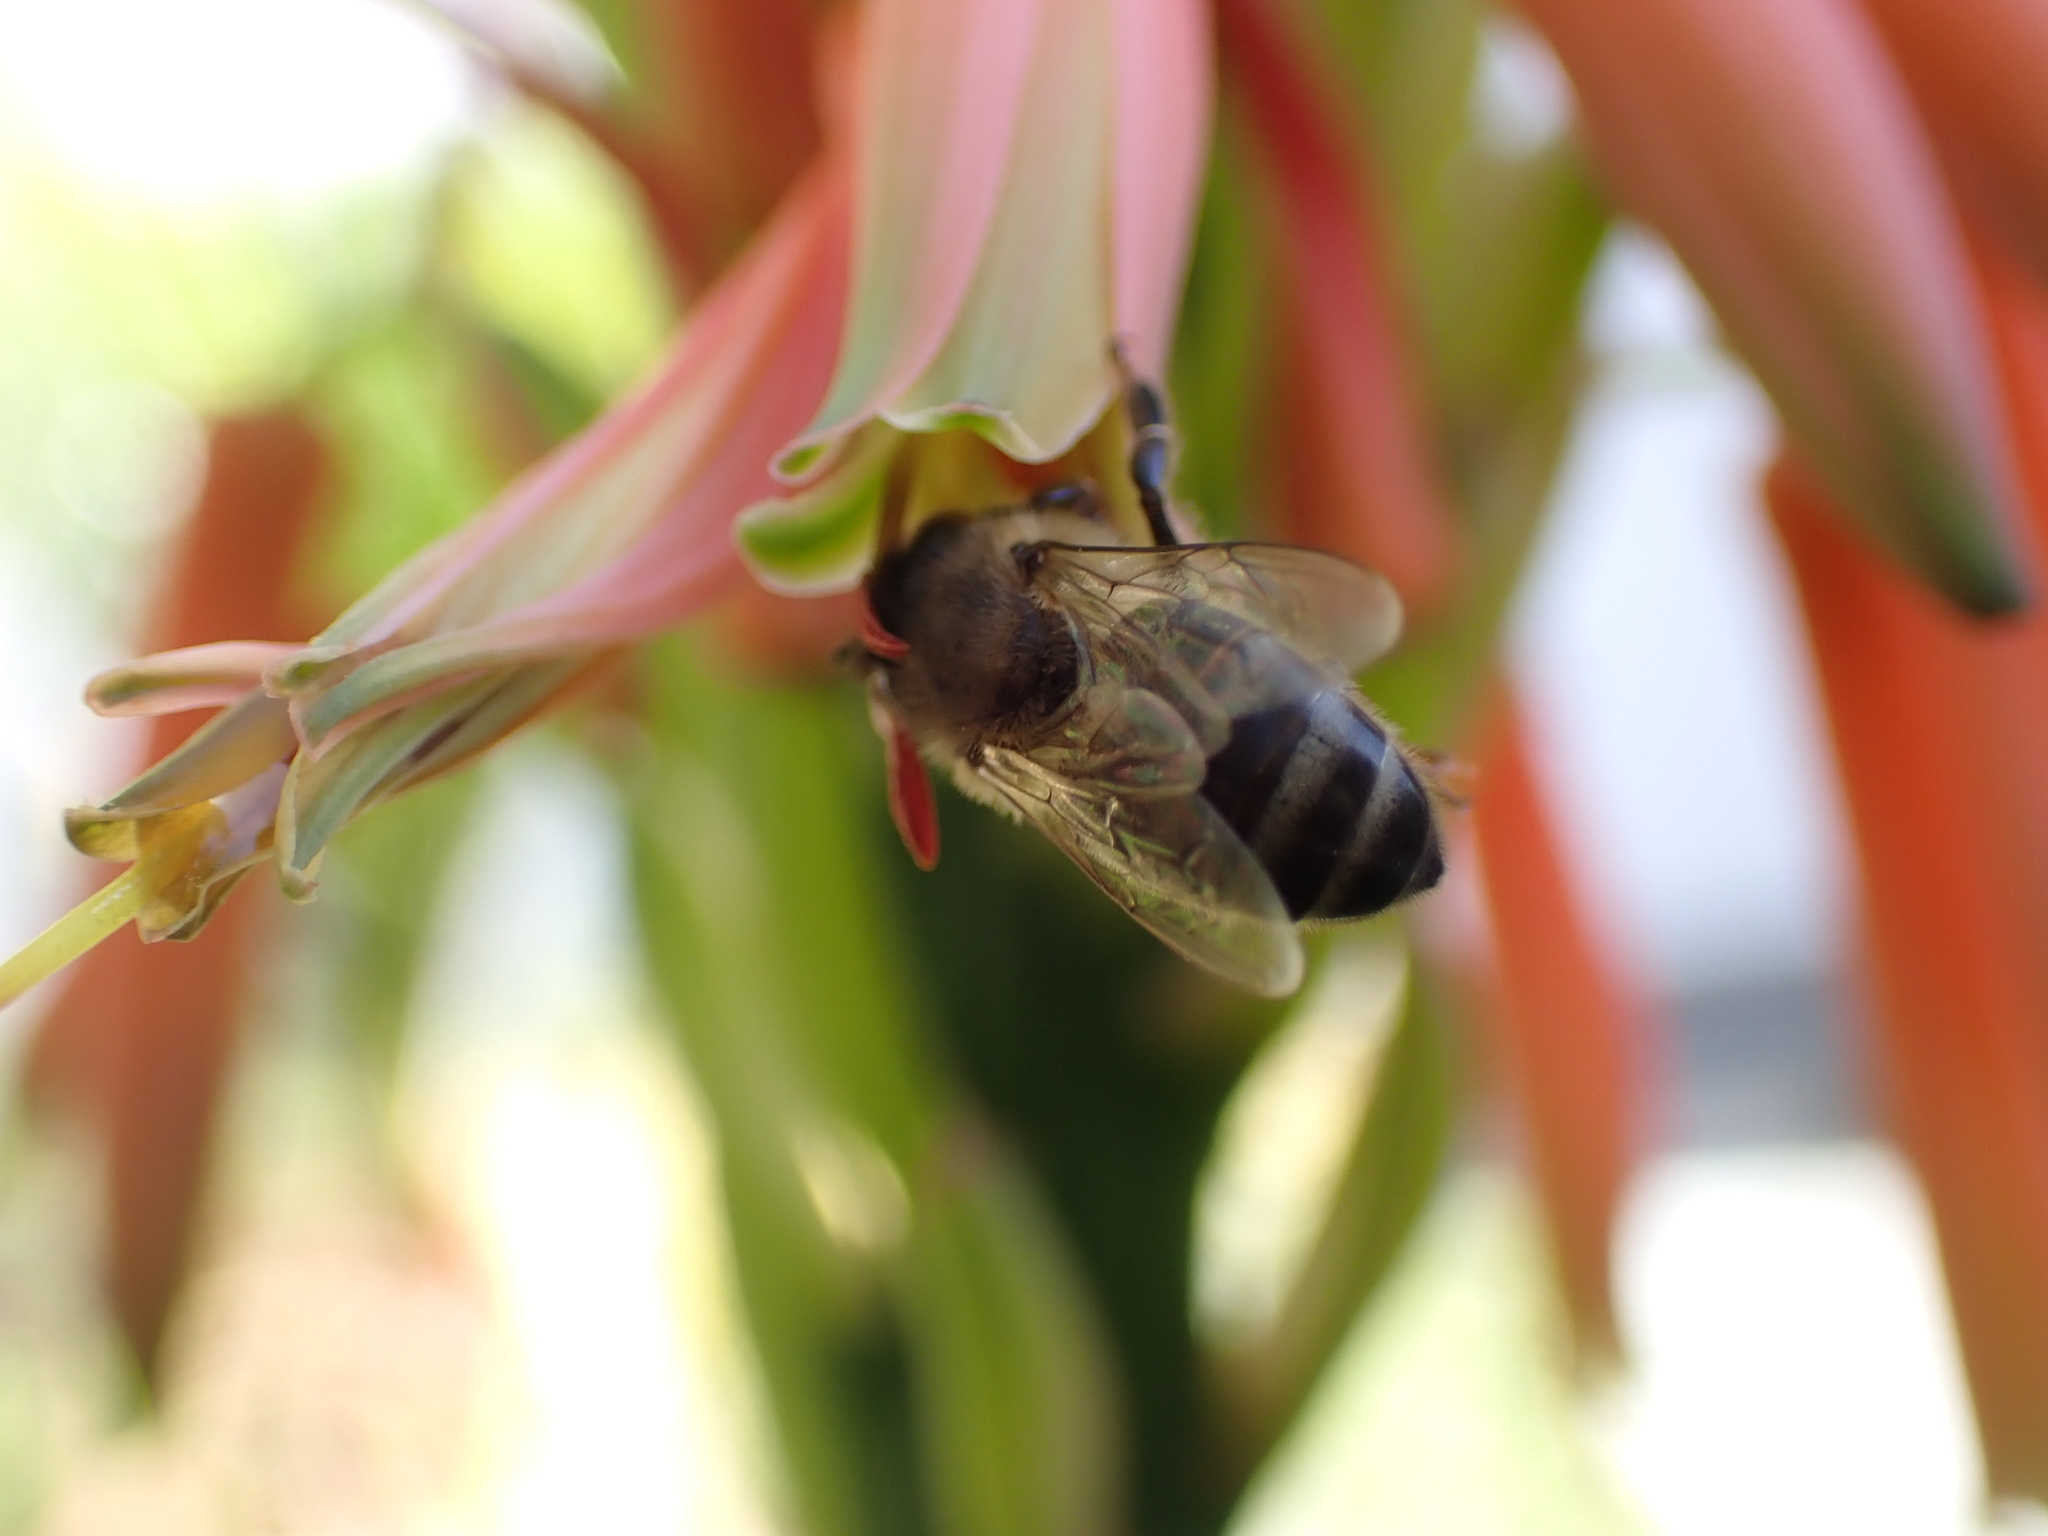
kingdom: Animalia
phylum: Arthropoda
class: Insecta
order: Hymenoptera
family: Apidae
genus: Apis
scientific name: Apis mellifera
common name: Honey bee
